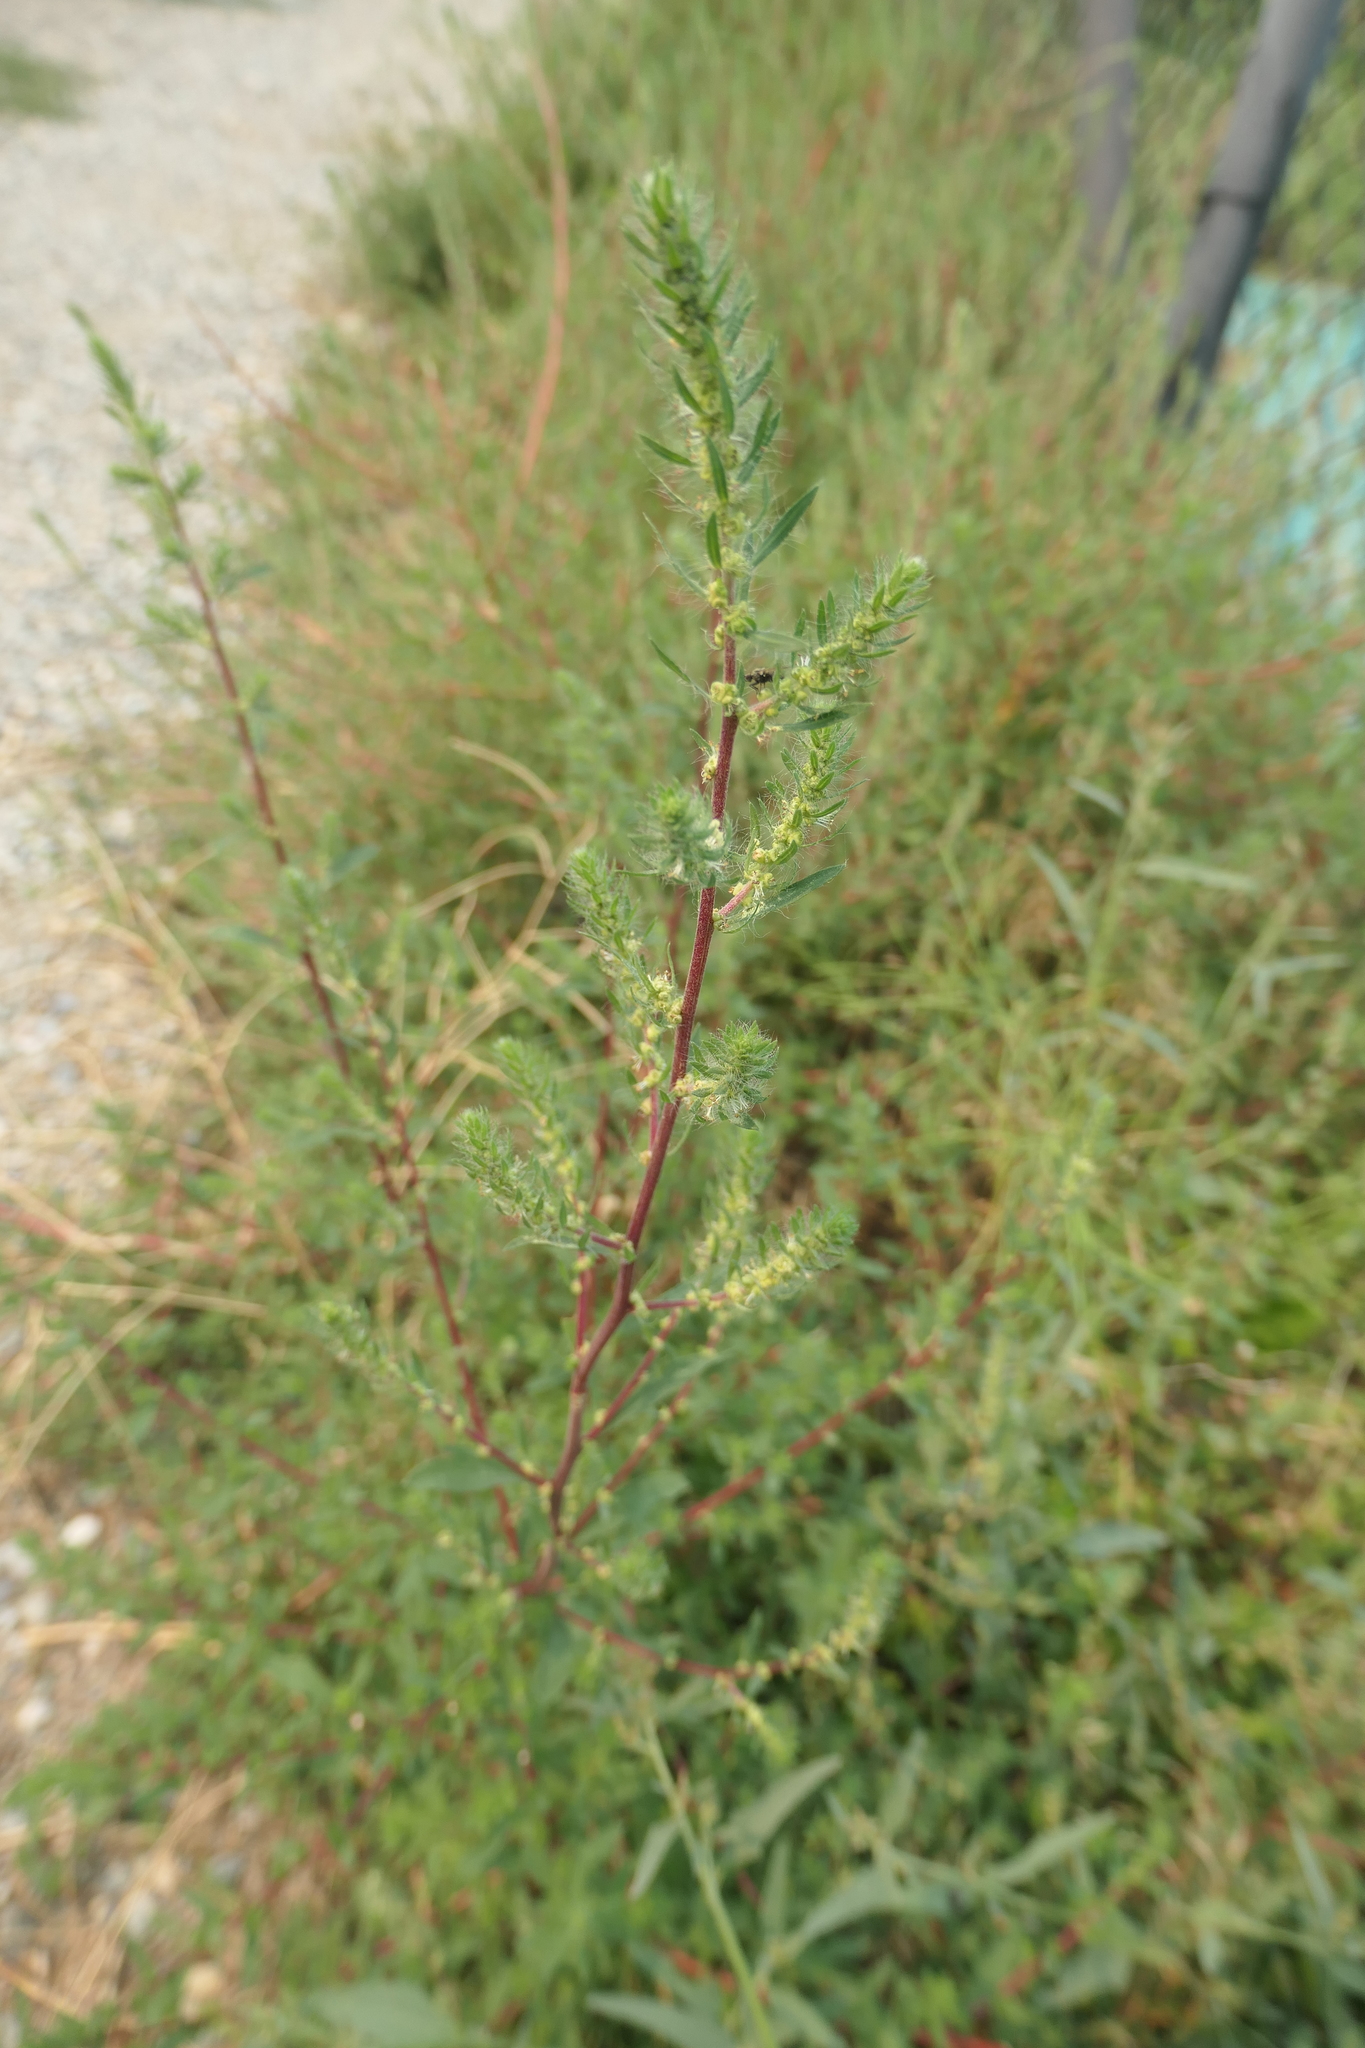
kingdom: Plantae
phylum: Tracheophyta
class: Magnoliopsida
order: Caryophyllales
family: Amaranthaceae
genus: Bassia
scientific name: Bassia scoparia
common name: Belvedere
